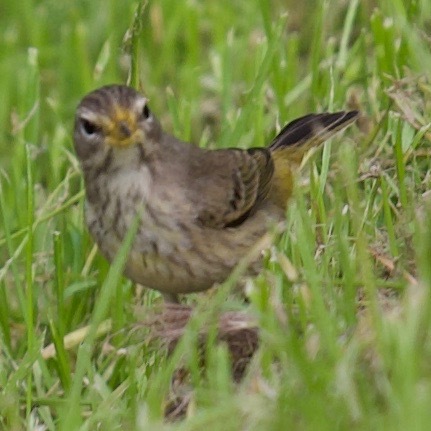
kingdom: Animalia
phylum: Chordata
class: Aves
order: Passeriformes
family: Parulidae
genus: Setophaga
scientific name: Setophaga palmarum
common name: Palm warbler
